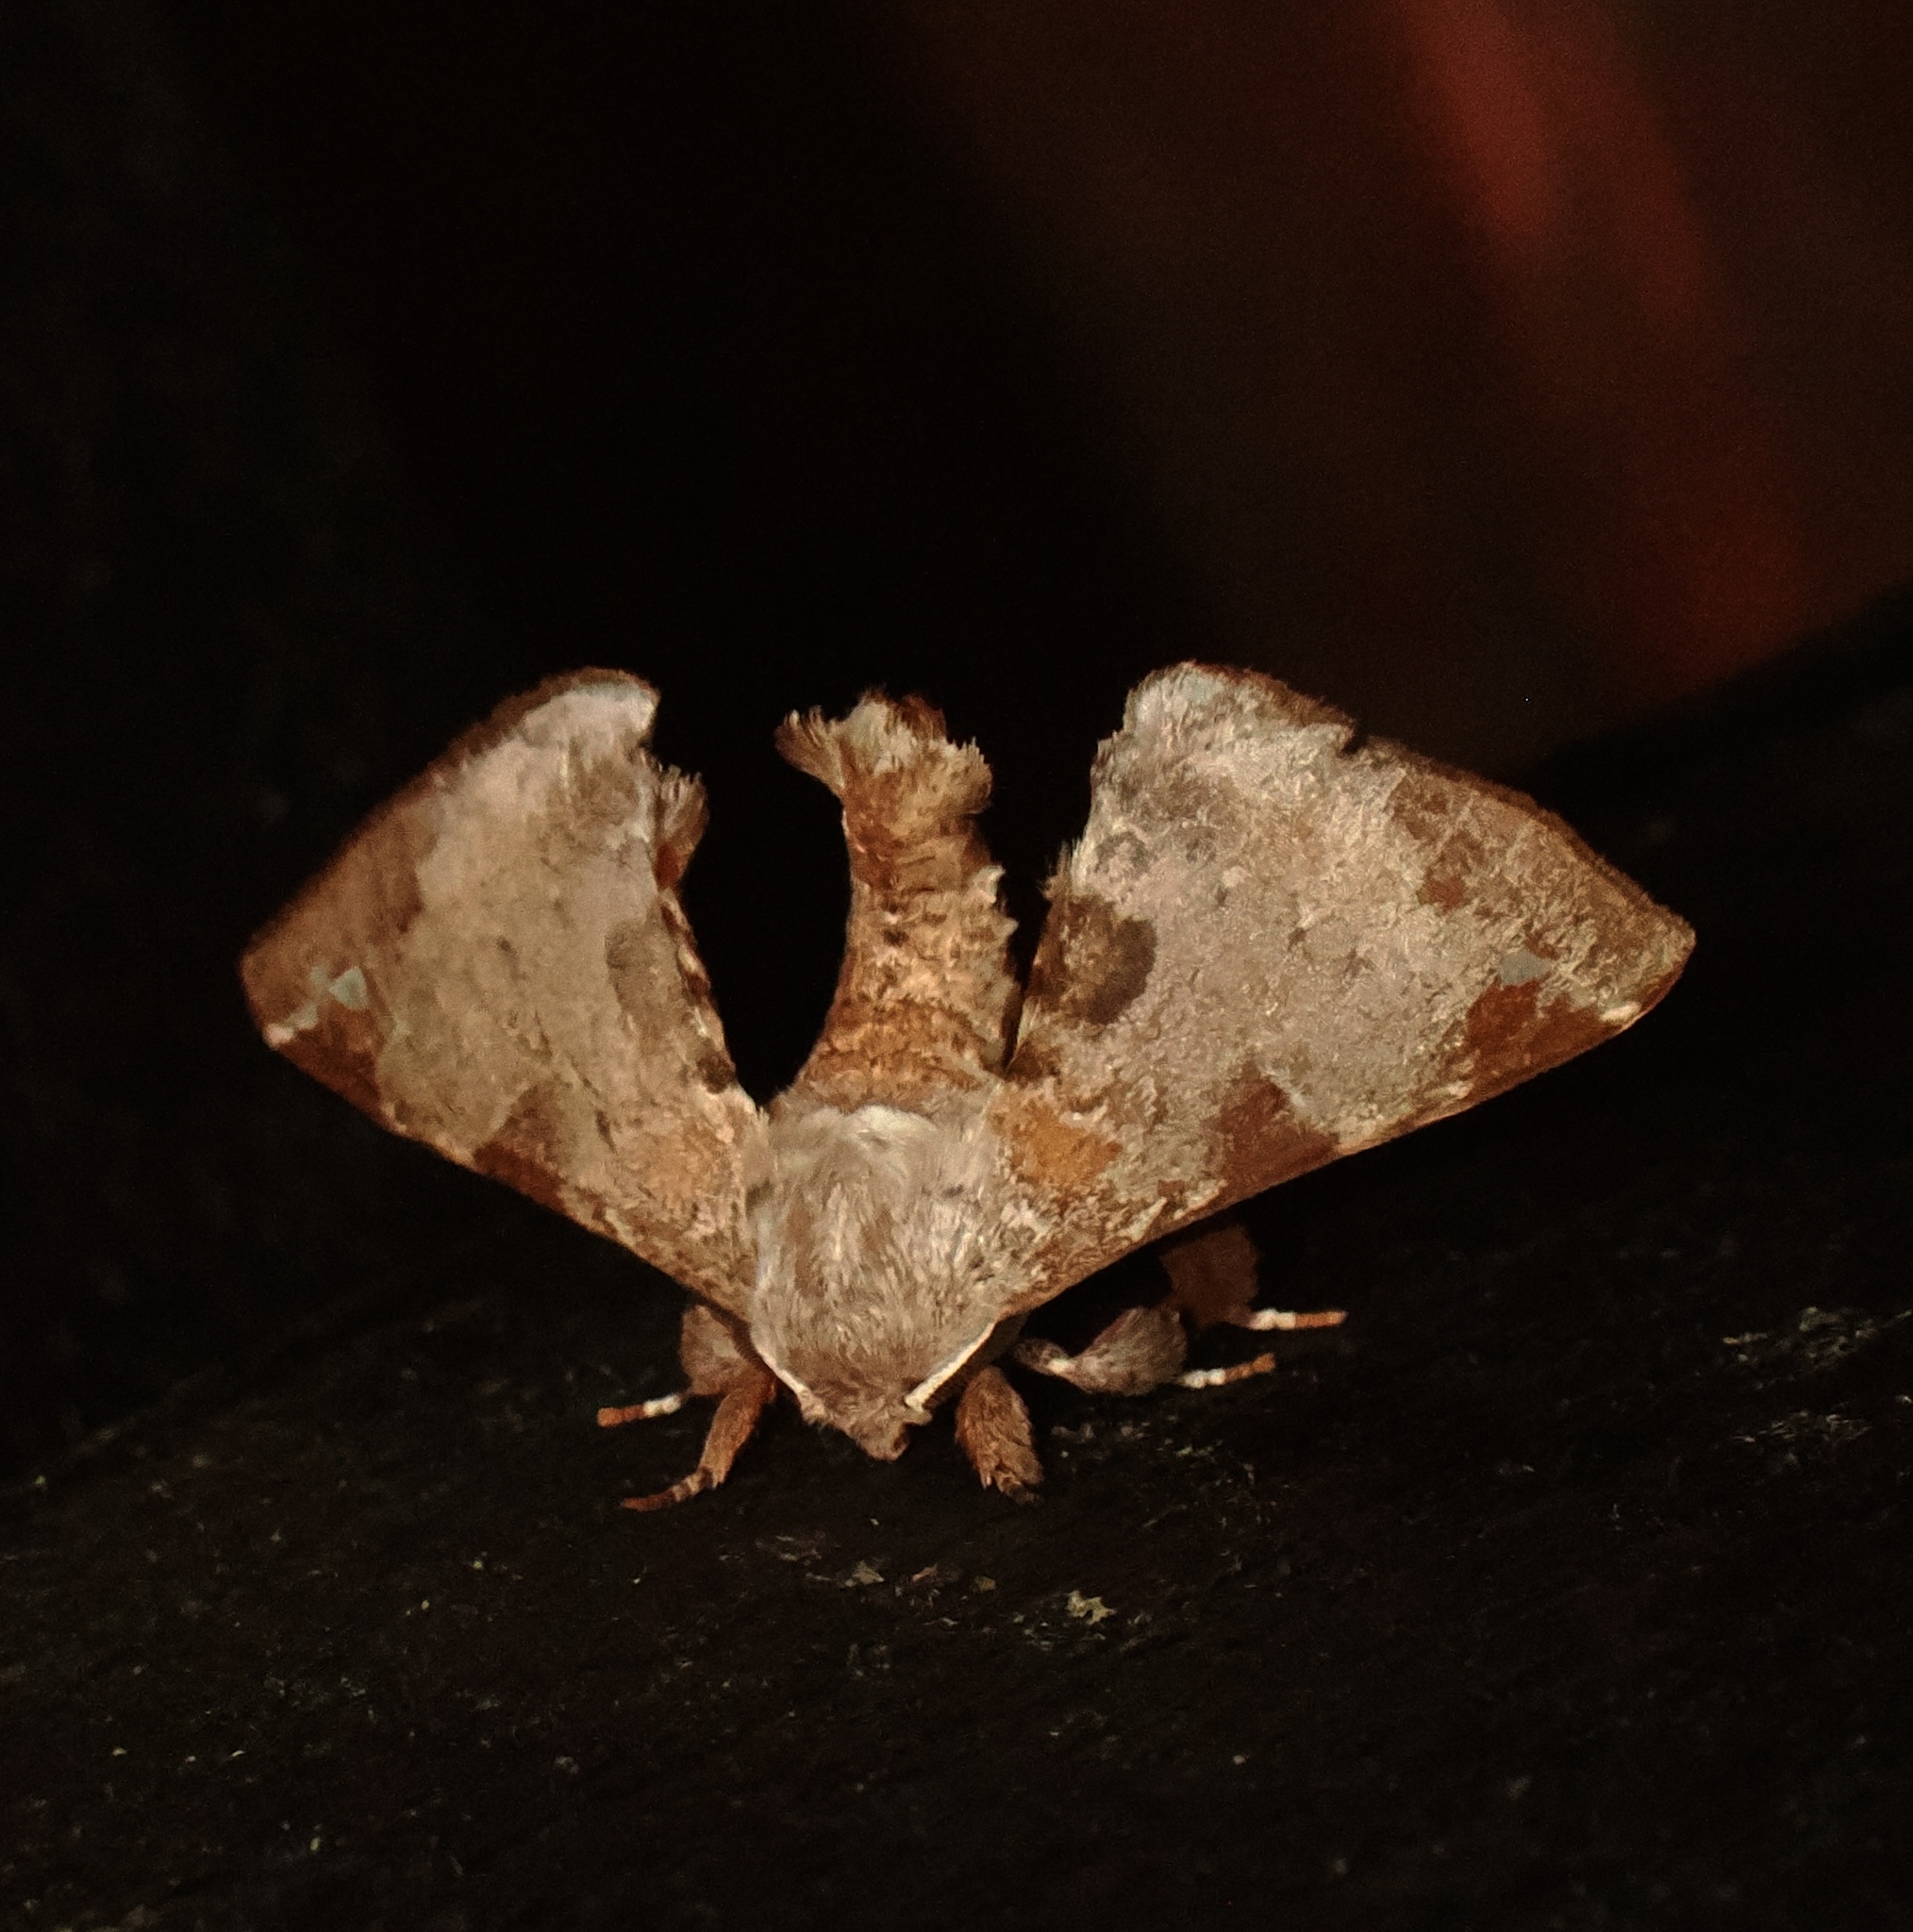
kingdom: Animalia
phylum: Arthropoda
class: Insecta
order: Lepidoptera
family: Apatelodidae
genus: Hygrochroa
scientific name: Hygrochroa
